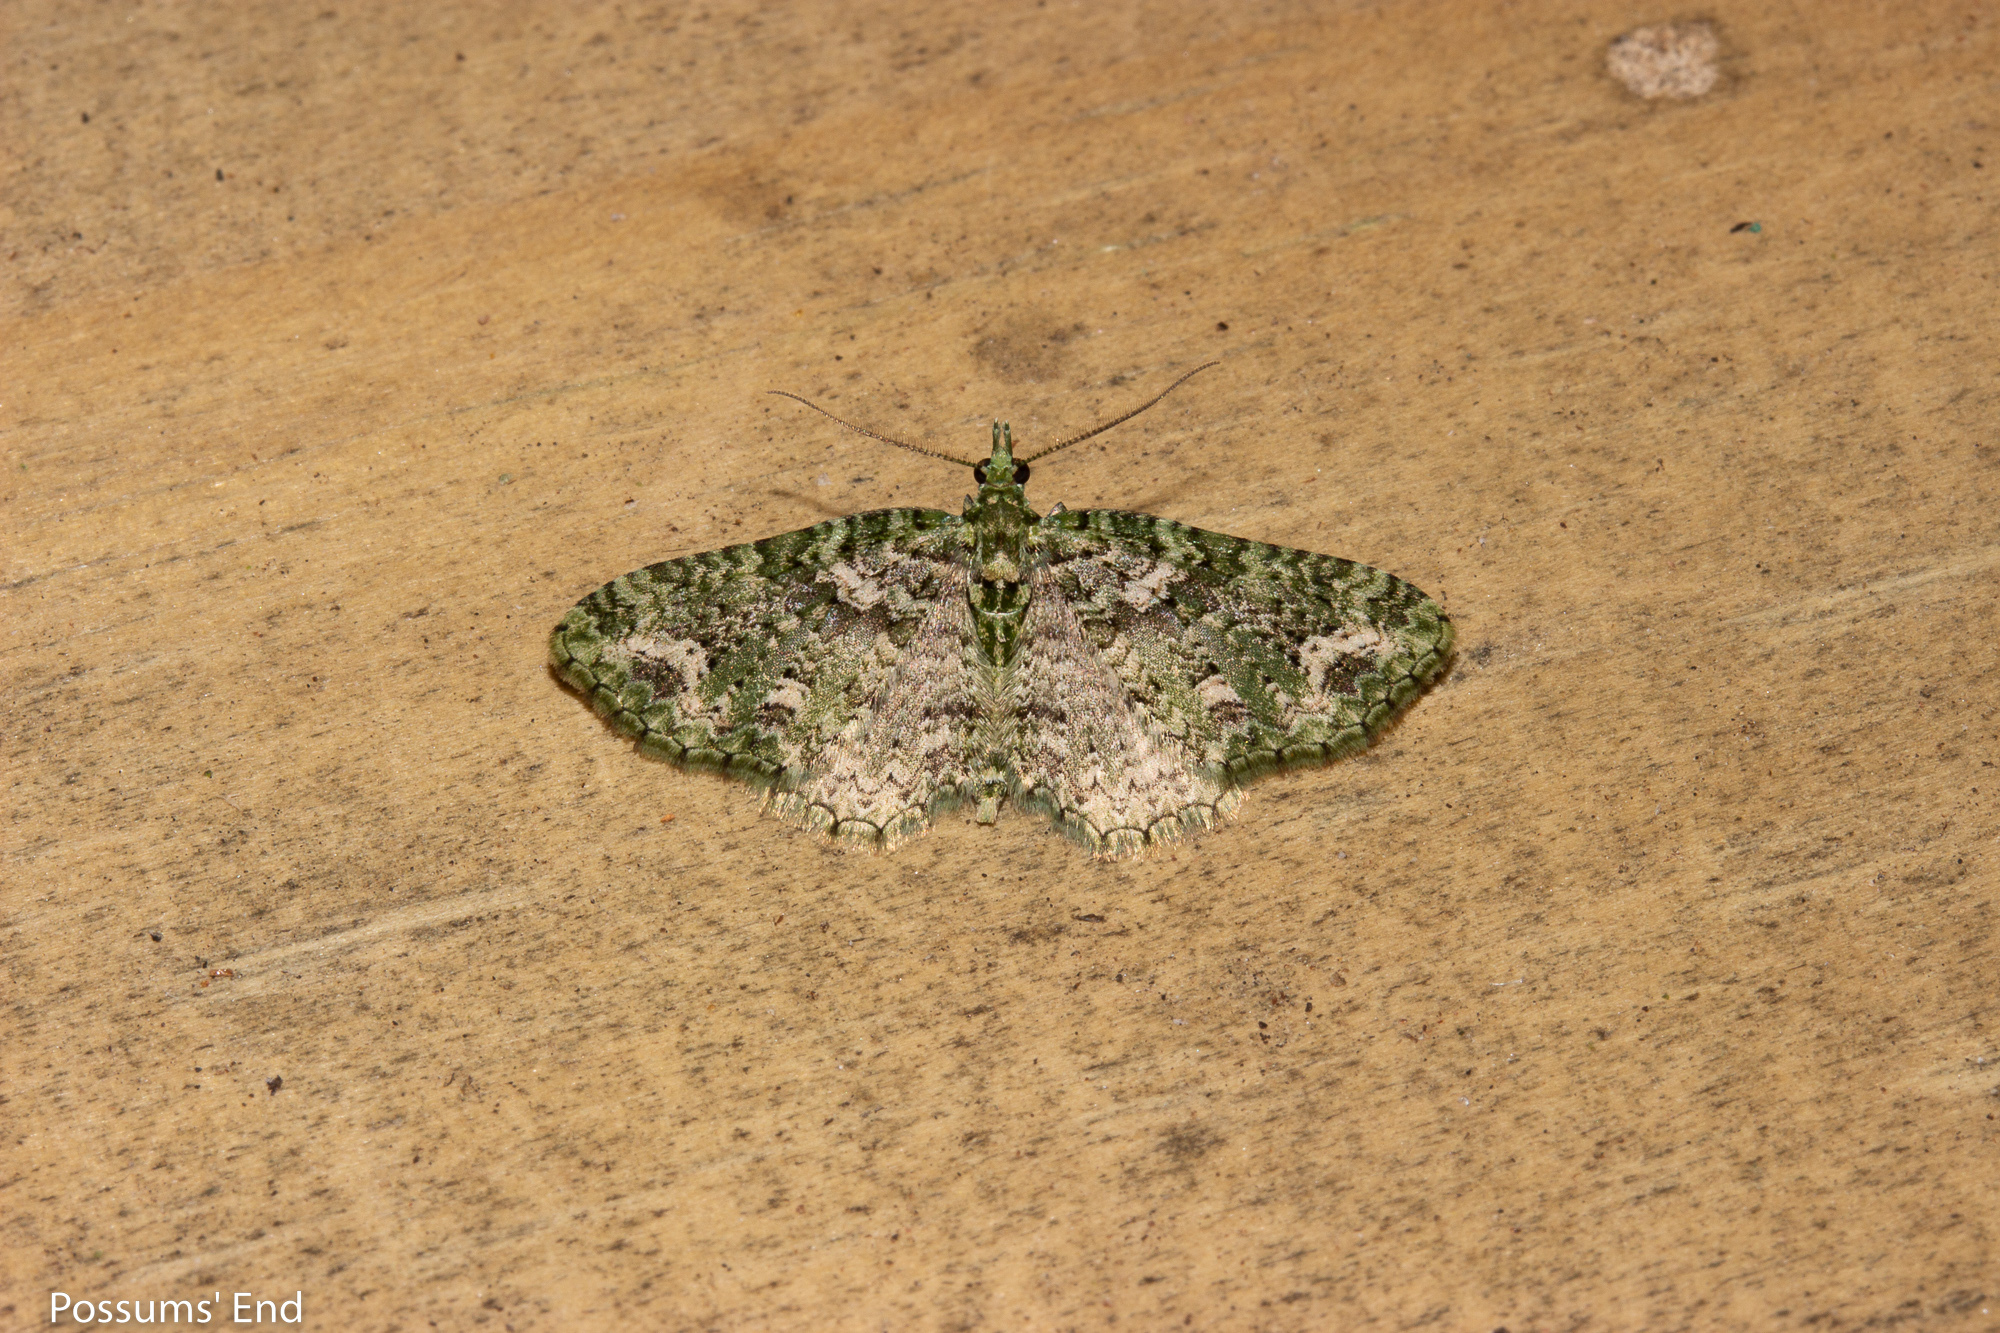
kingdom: Animalia
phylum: Arthropoda
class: Insecta
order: Lepidoptera
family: Geometridae
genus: Pasiphila
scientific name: Pasiphila muscosata
